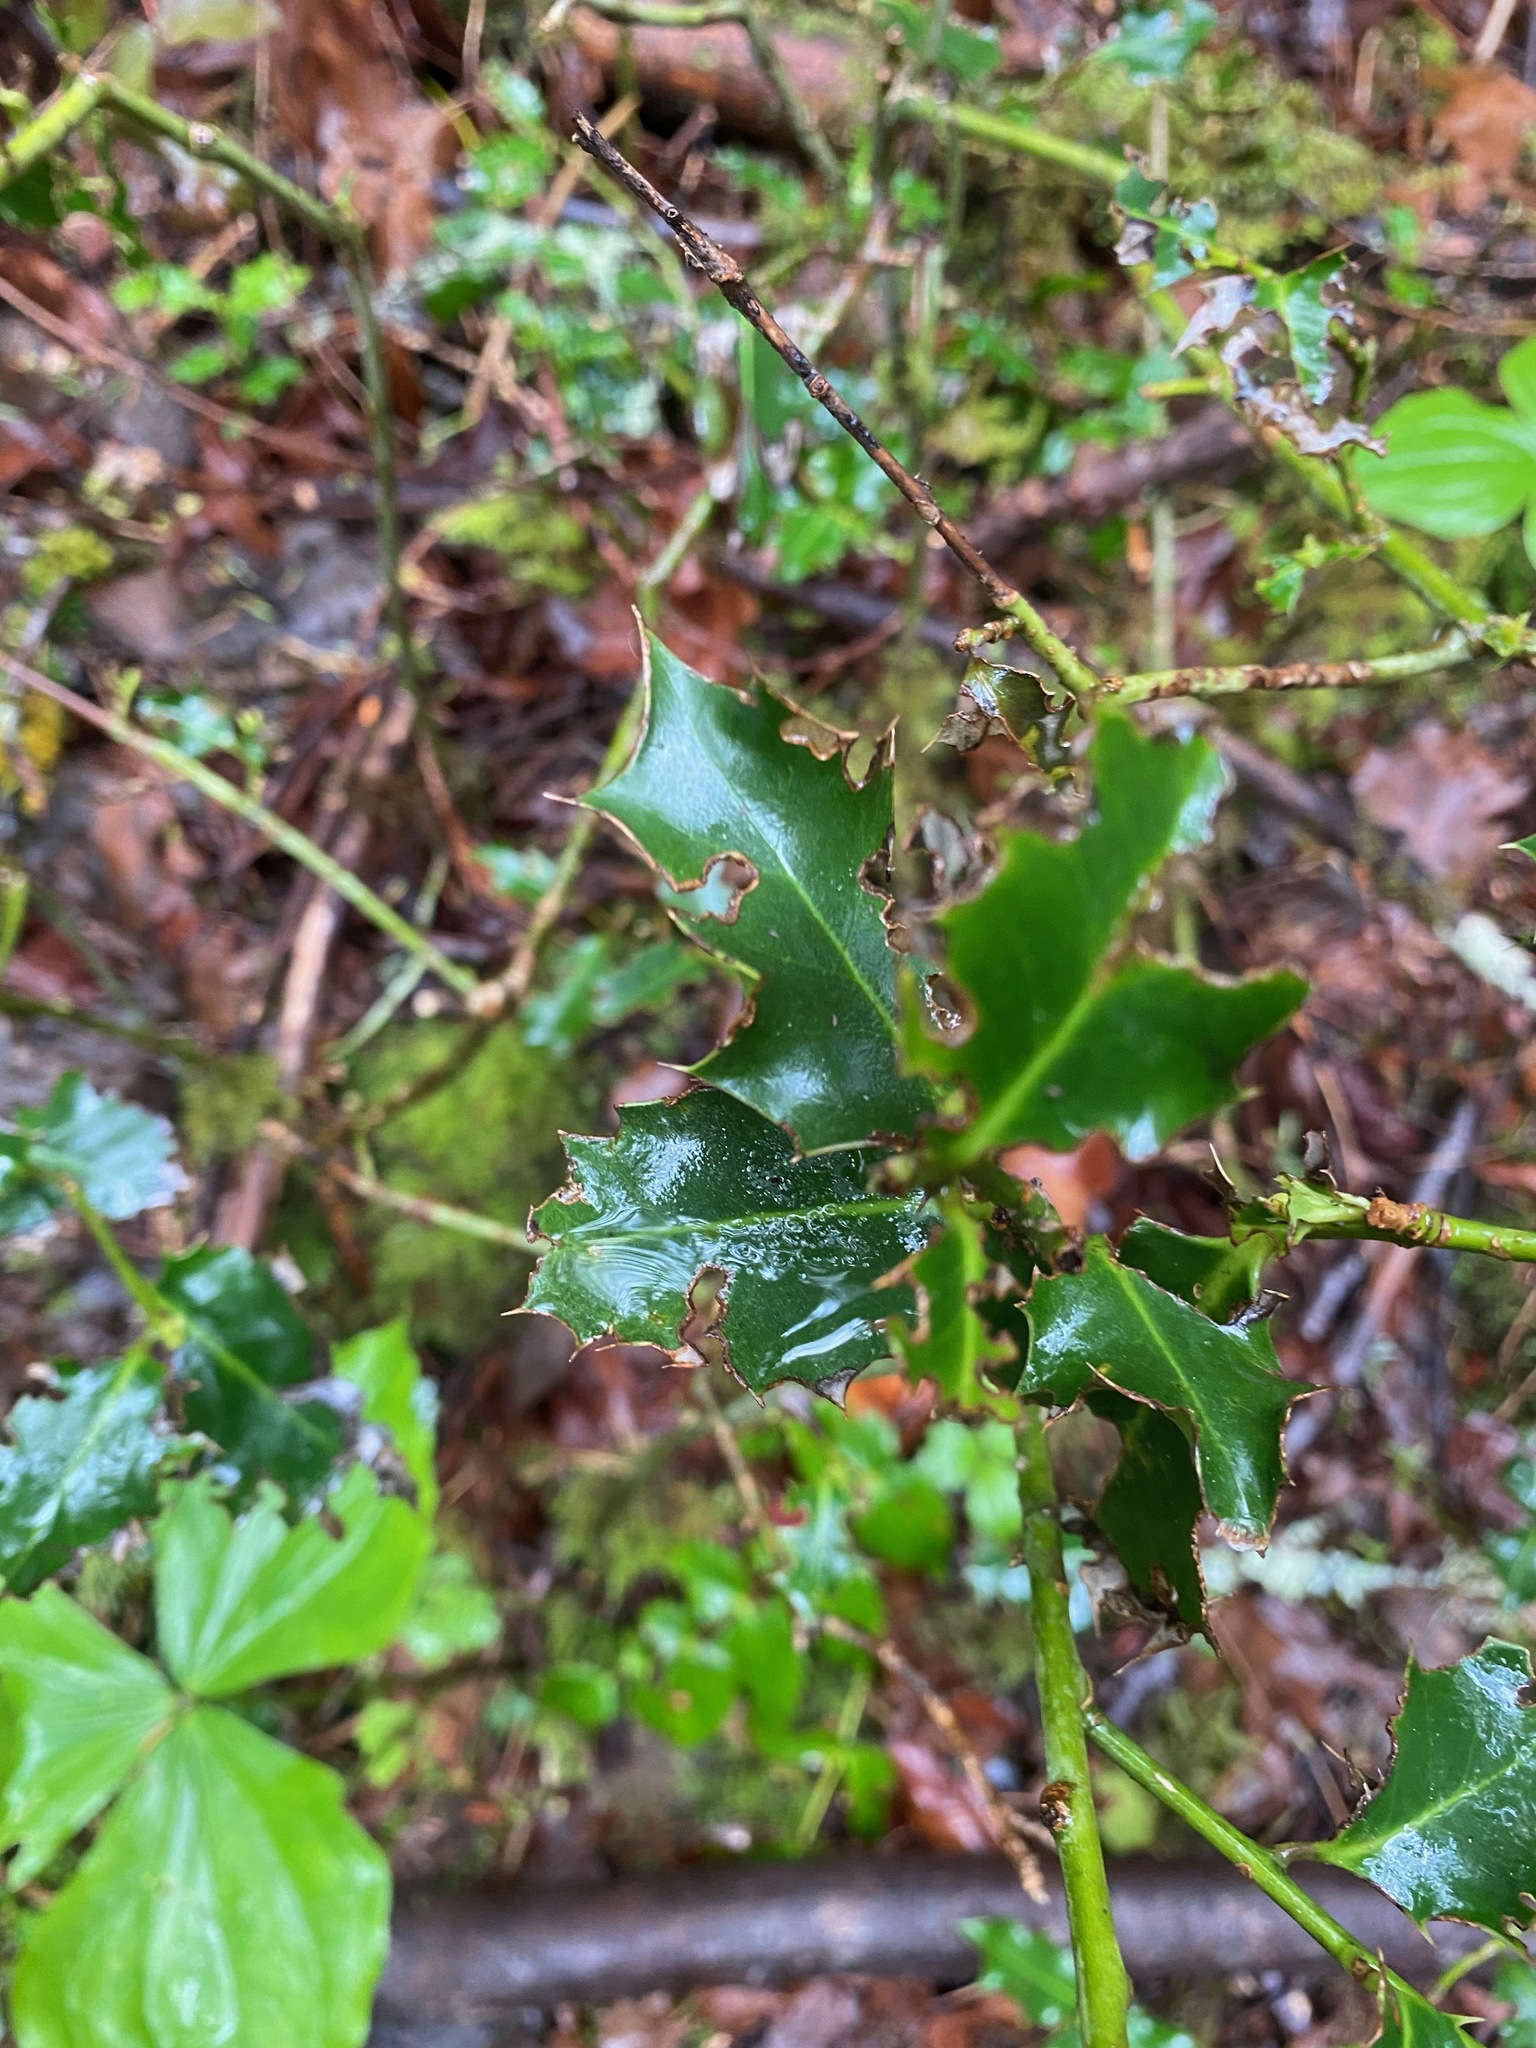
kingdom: Plantae
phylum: Tracheophyta
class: Magnoliopsida
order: Aquifoliales
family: Aquifoliaceae
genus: Ilex
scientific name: Ilex aquifolium
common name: English holly
